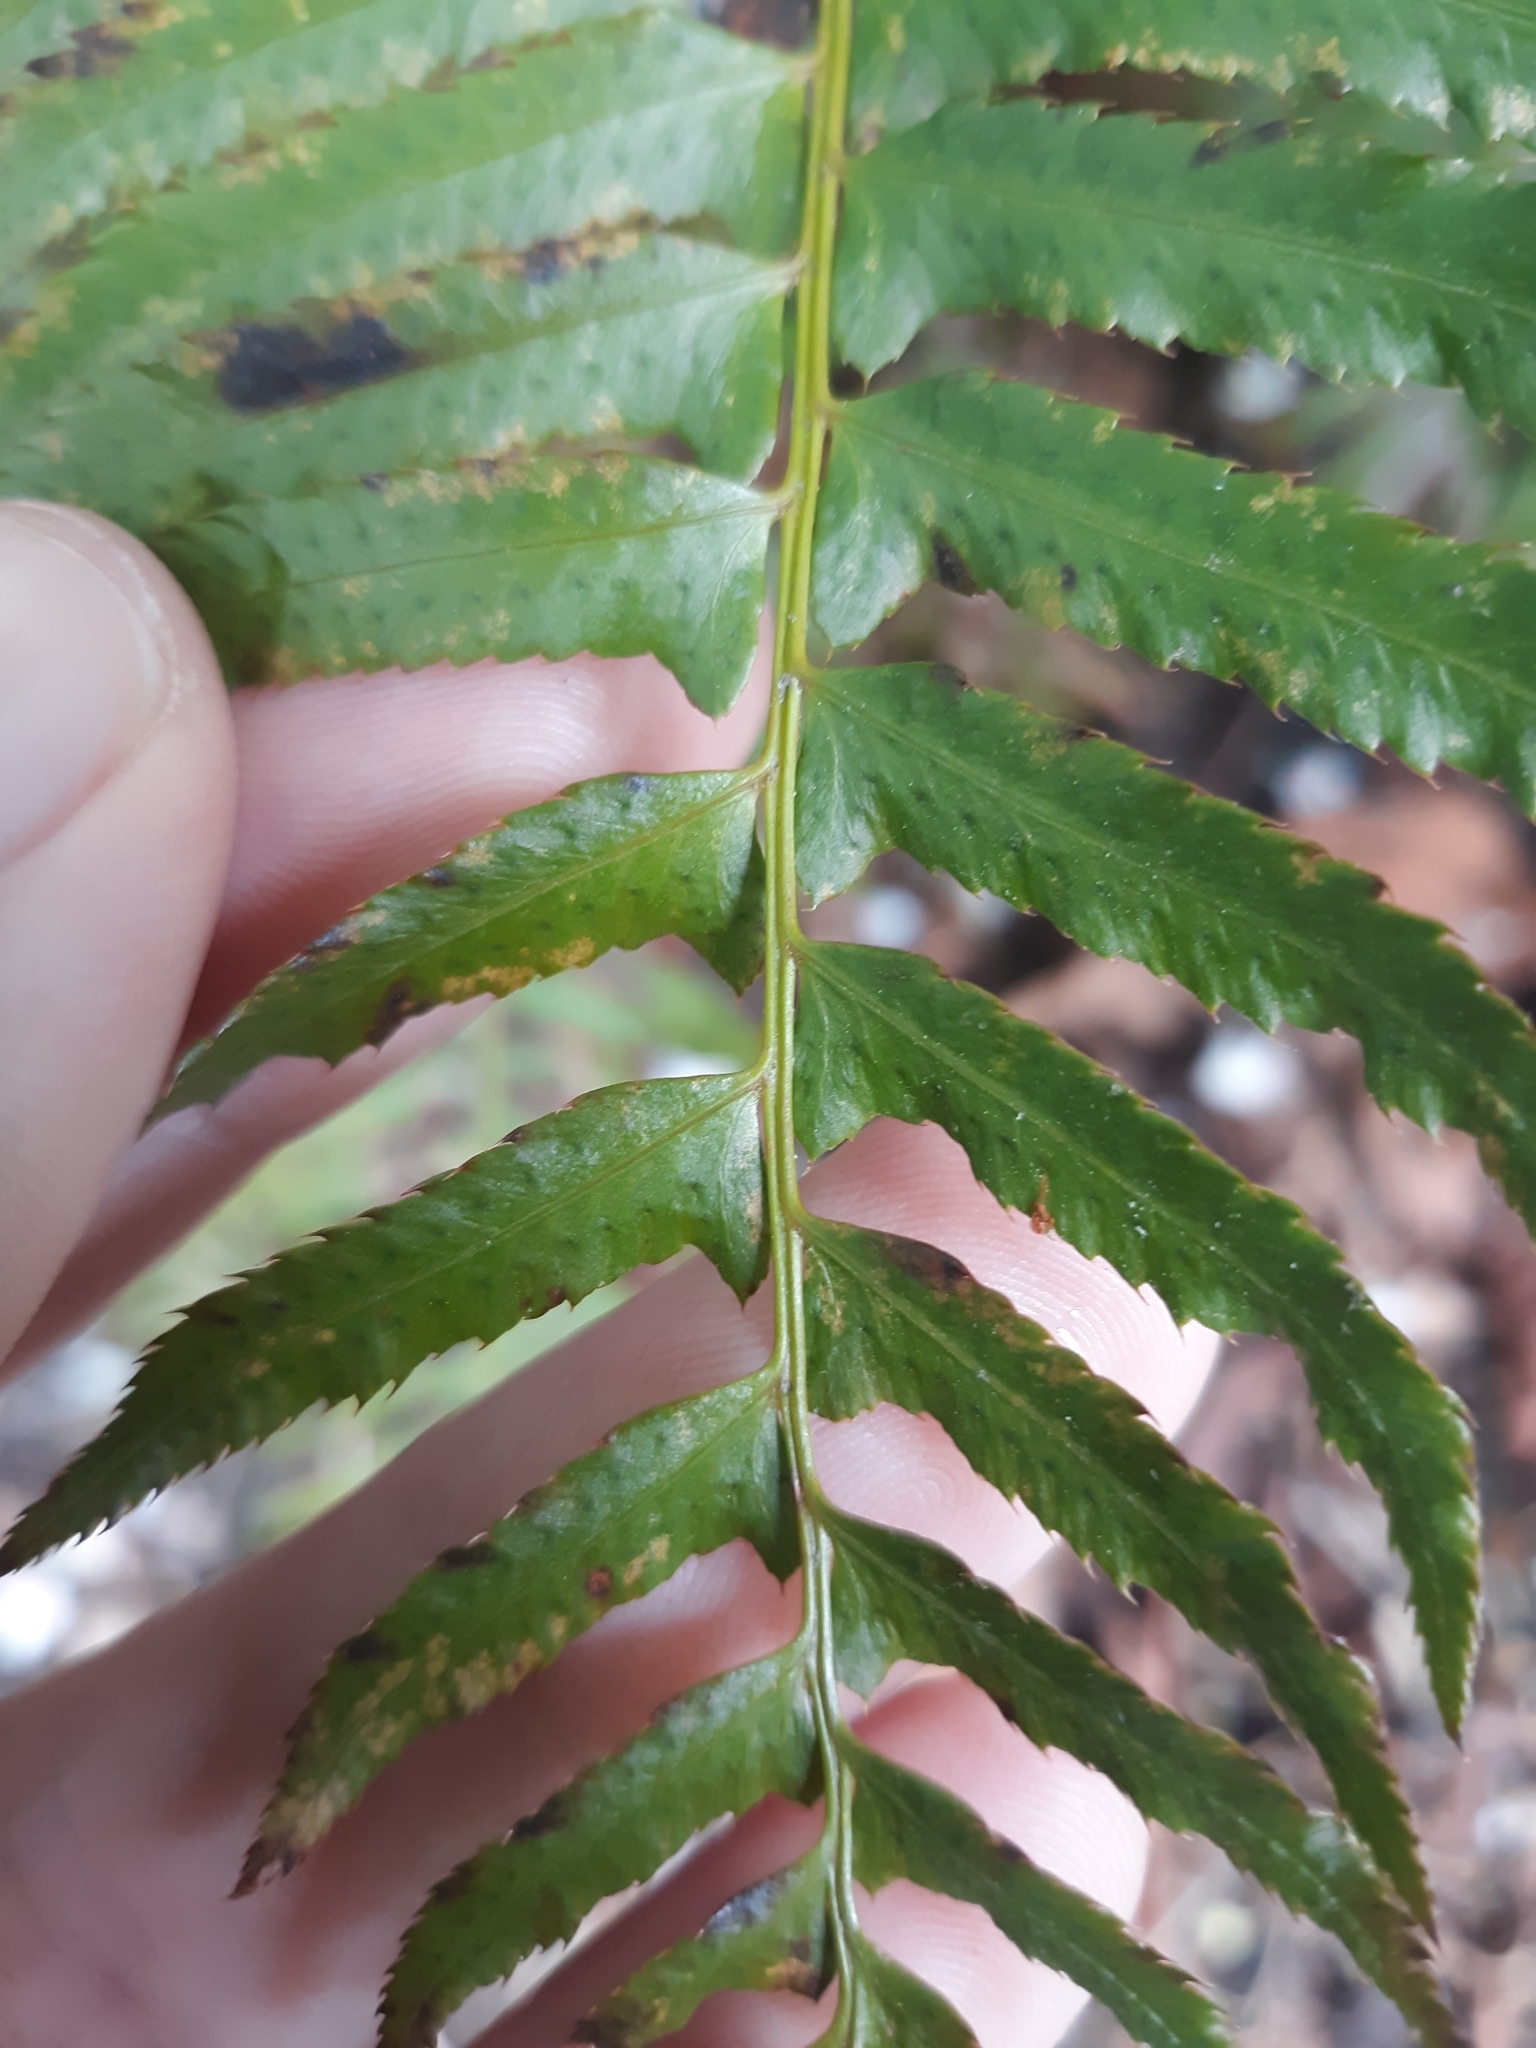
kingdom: Plantae
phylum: Tracheophyta
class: Polypodiopsida
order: Polypodiales
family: Dryopteridaceae
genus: Polystichum
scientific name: Polystichum munitum
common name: Western sword-fern
